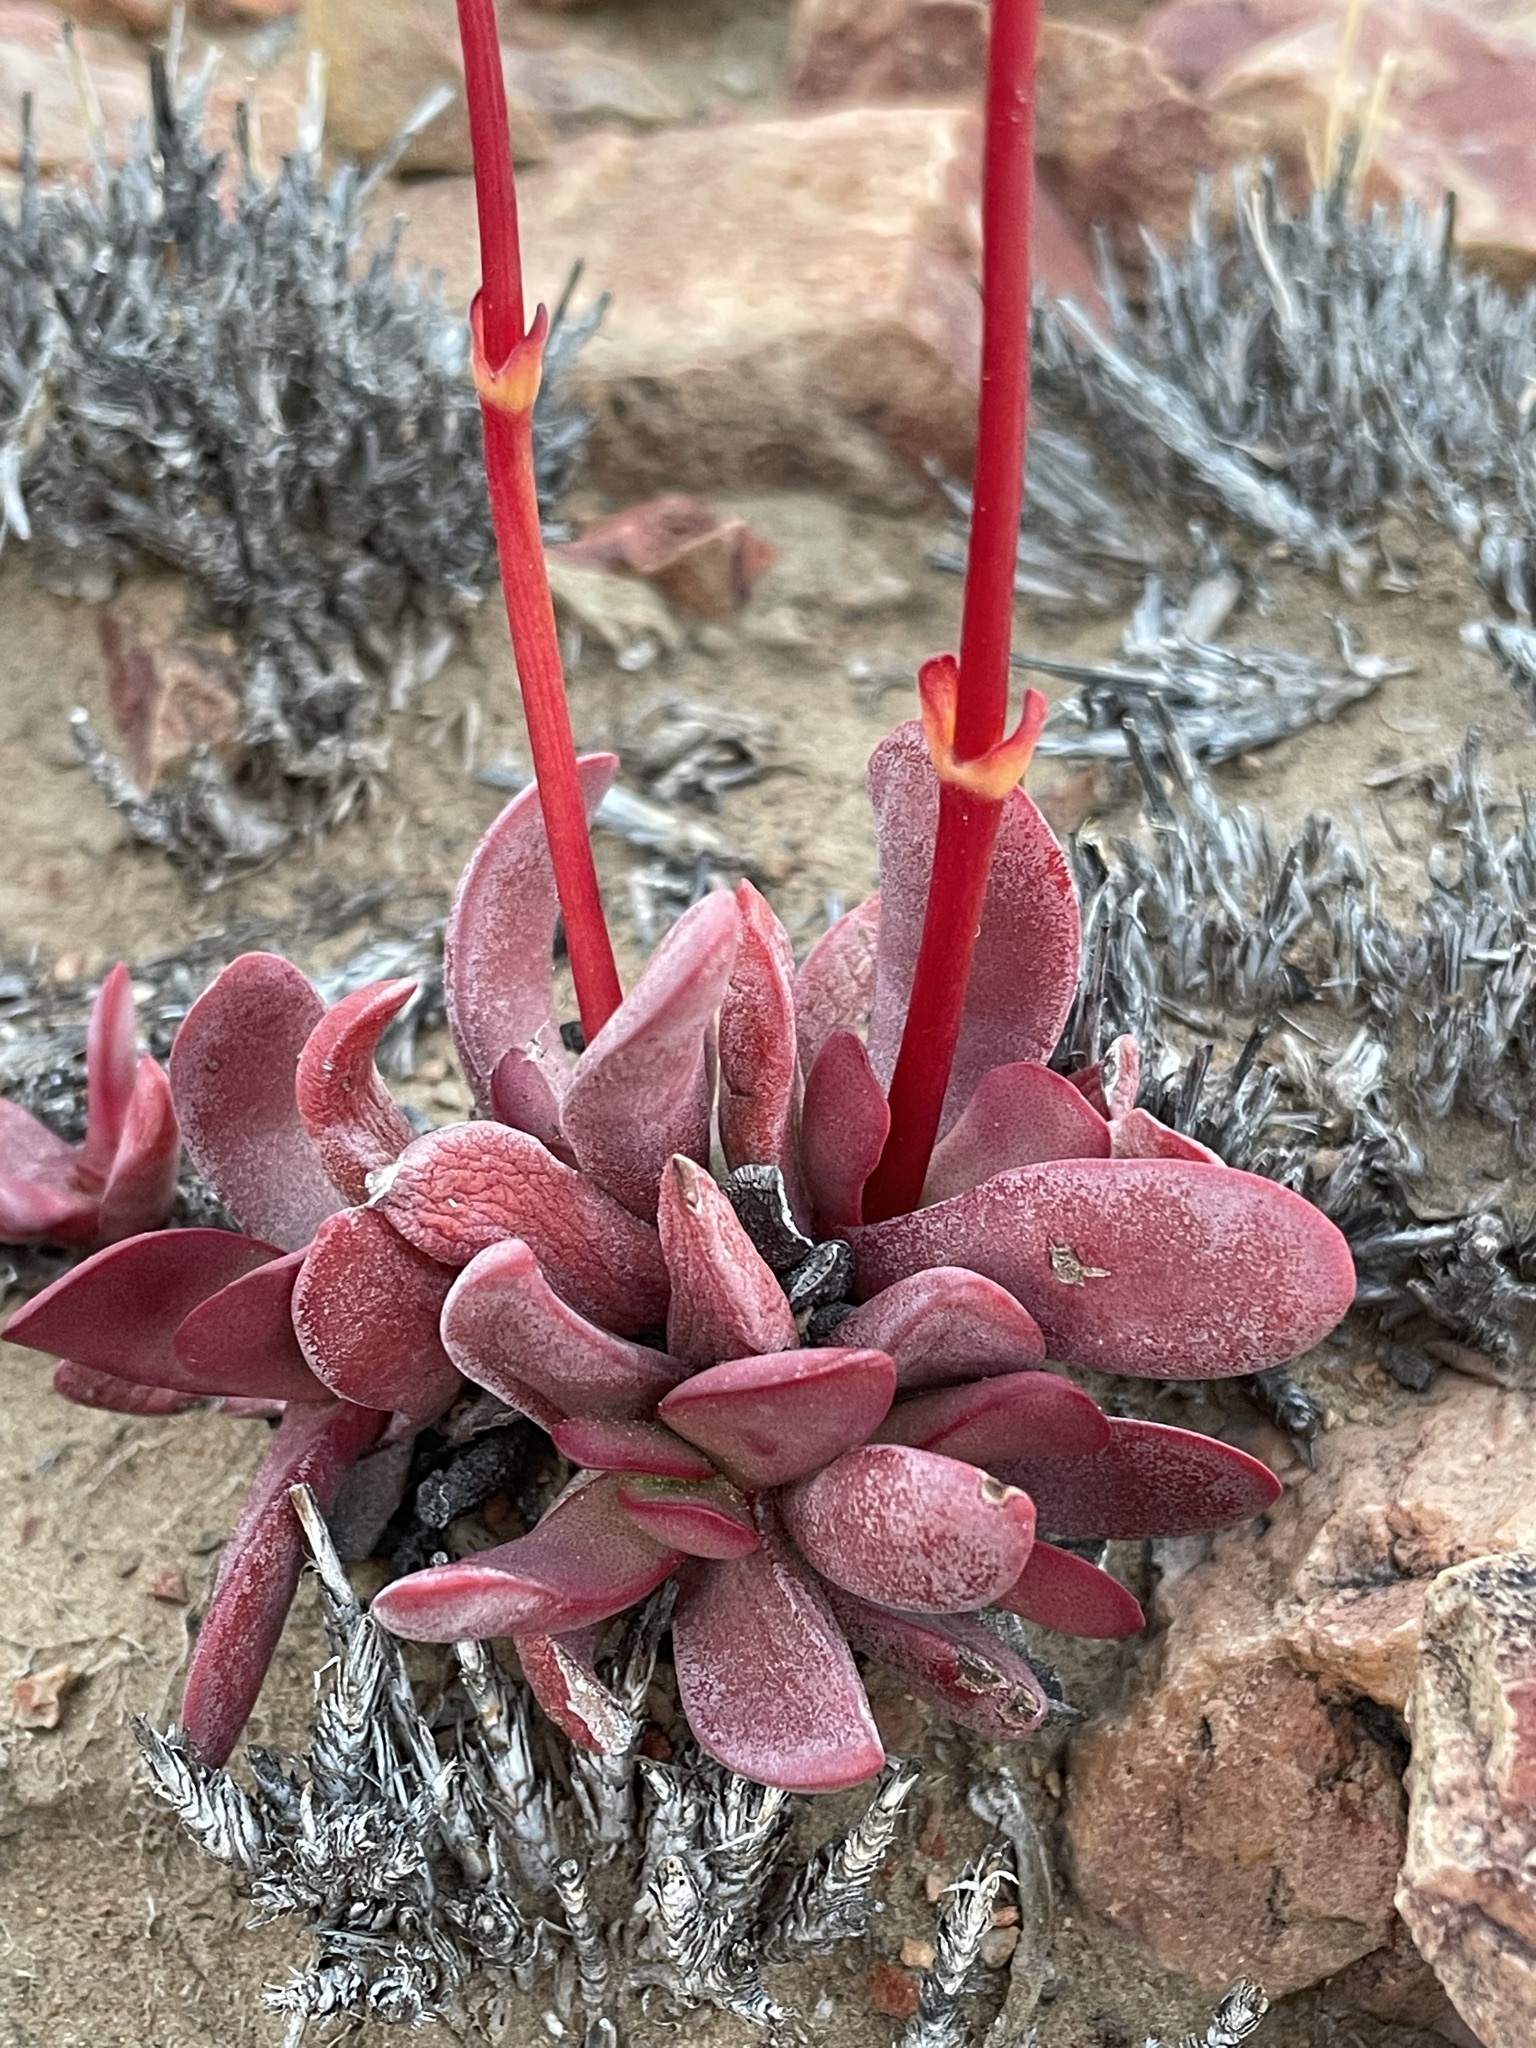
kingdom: Plantae
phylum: Tracheophyta
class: Magnoliopsida
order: Saxifragales
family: Crassulaceae
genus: Crassula
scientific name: Crassula clavata
